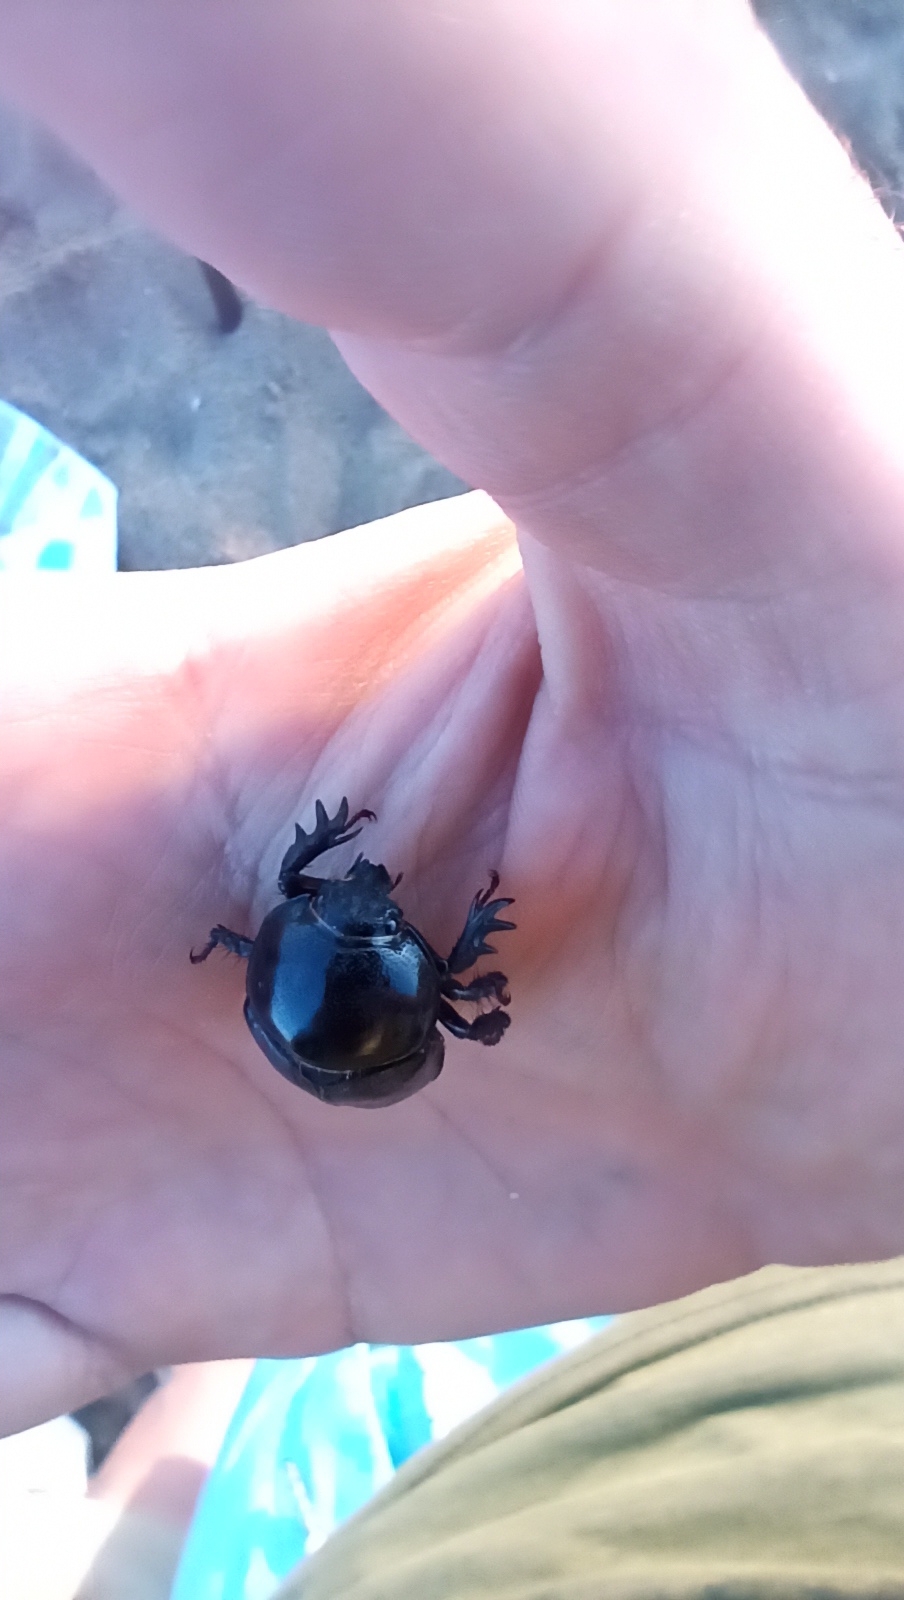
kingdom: Animalia
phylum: Arthropoda
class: Insecta
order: Coleoptera
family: Scarabaeidae
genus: Diloboderus
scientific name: Diloboderus abderus
